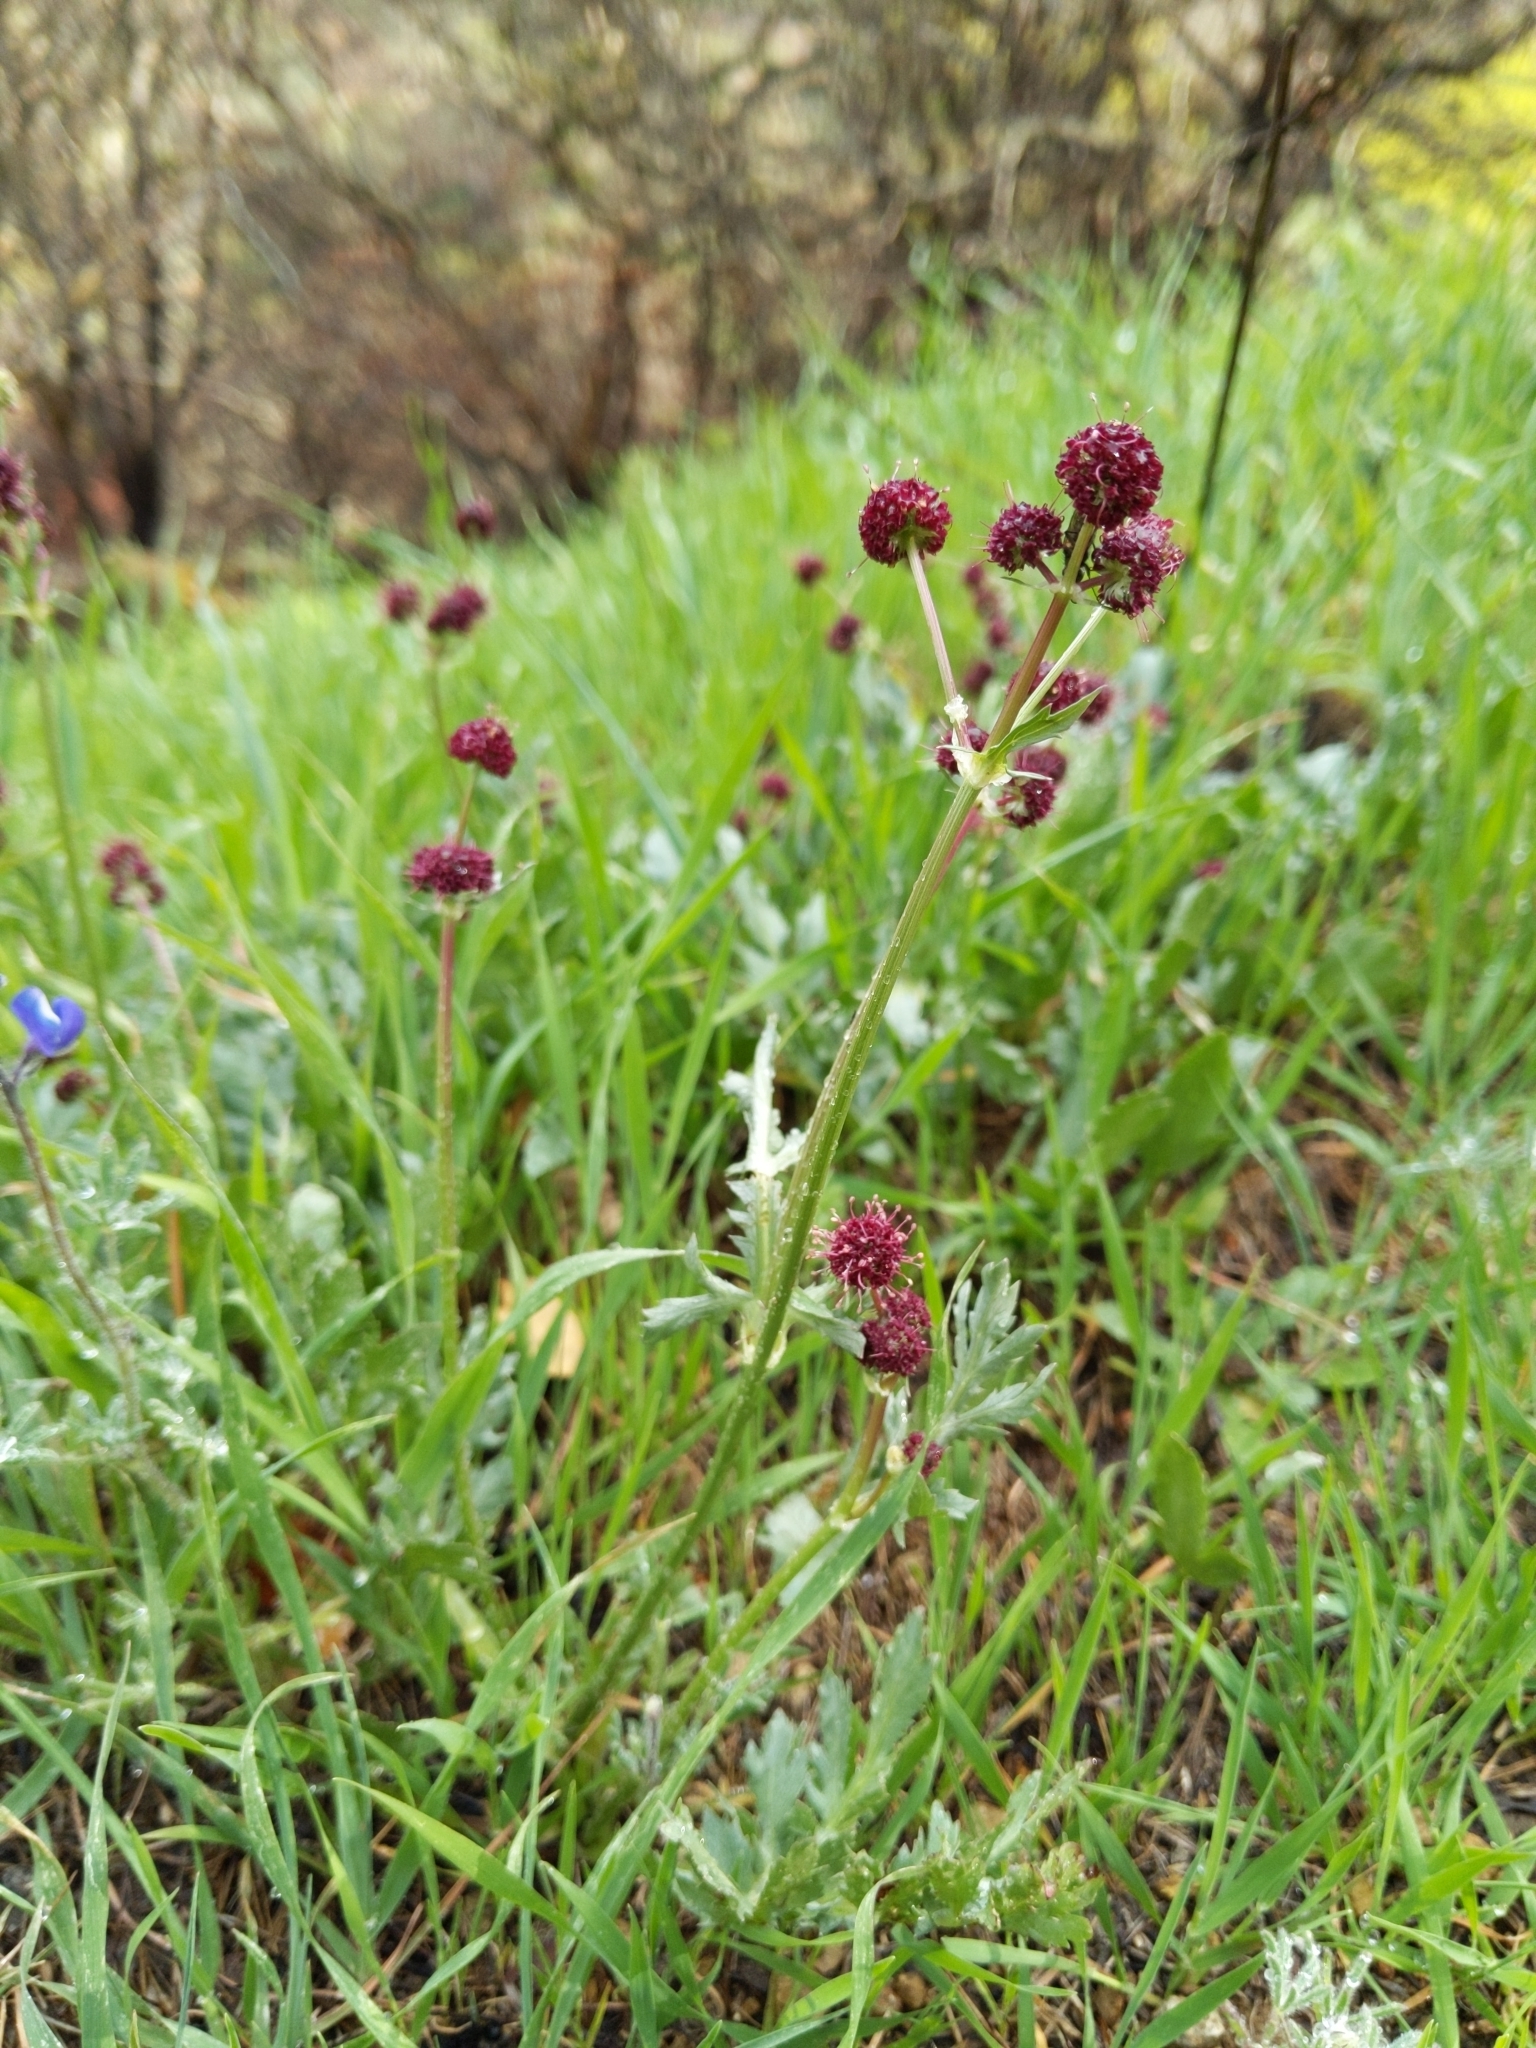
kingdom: Plantae
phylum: Tracheophyta
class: Magnoliopsida
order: Apiales
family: Apiaceae
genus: Sanicula
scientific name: Sanicula bipinnatifida
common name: Shoe-buttons
